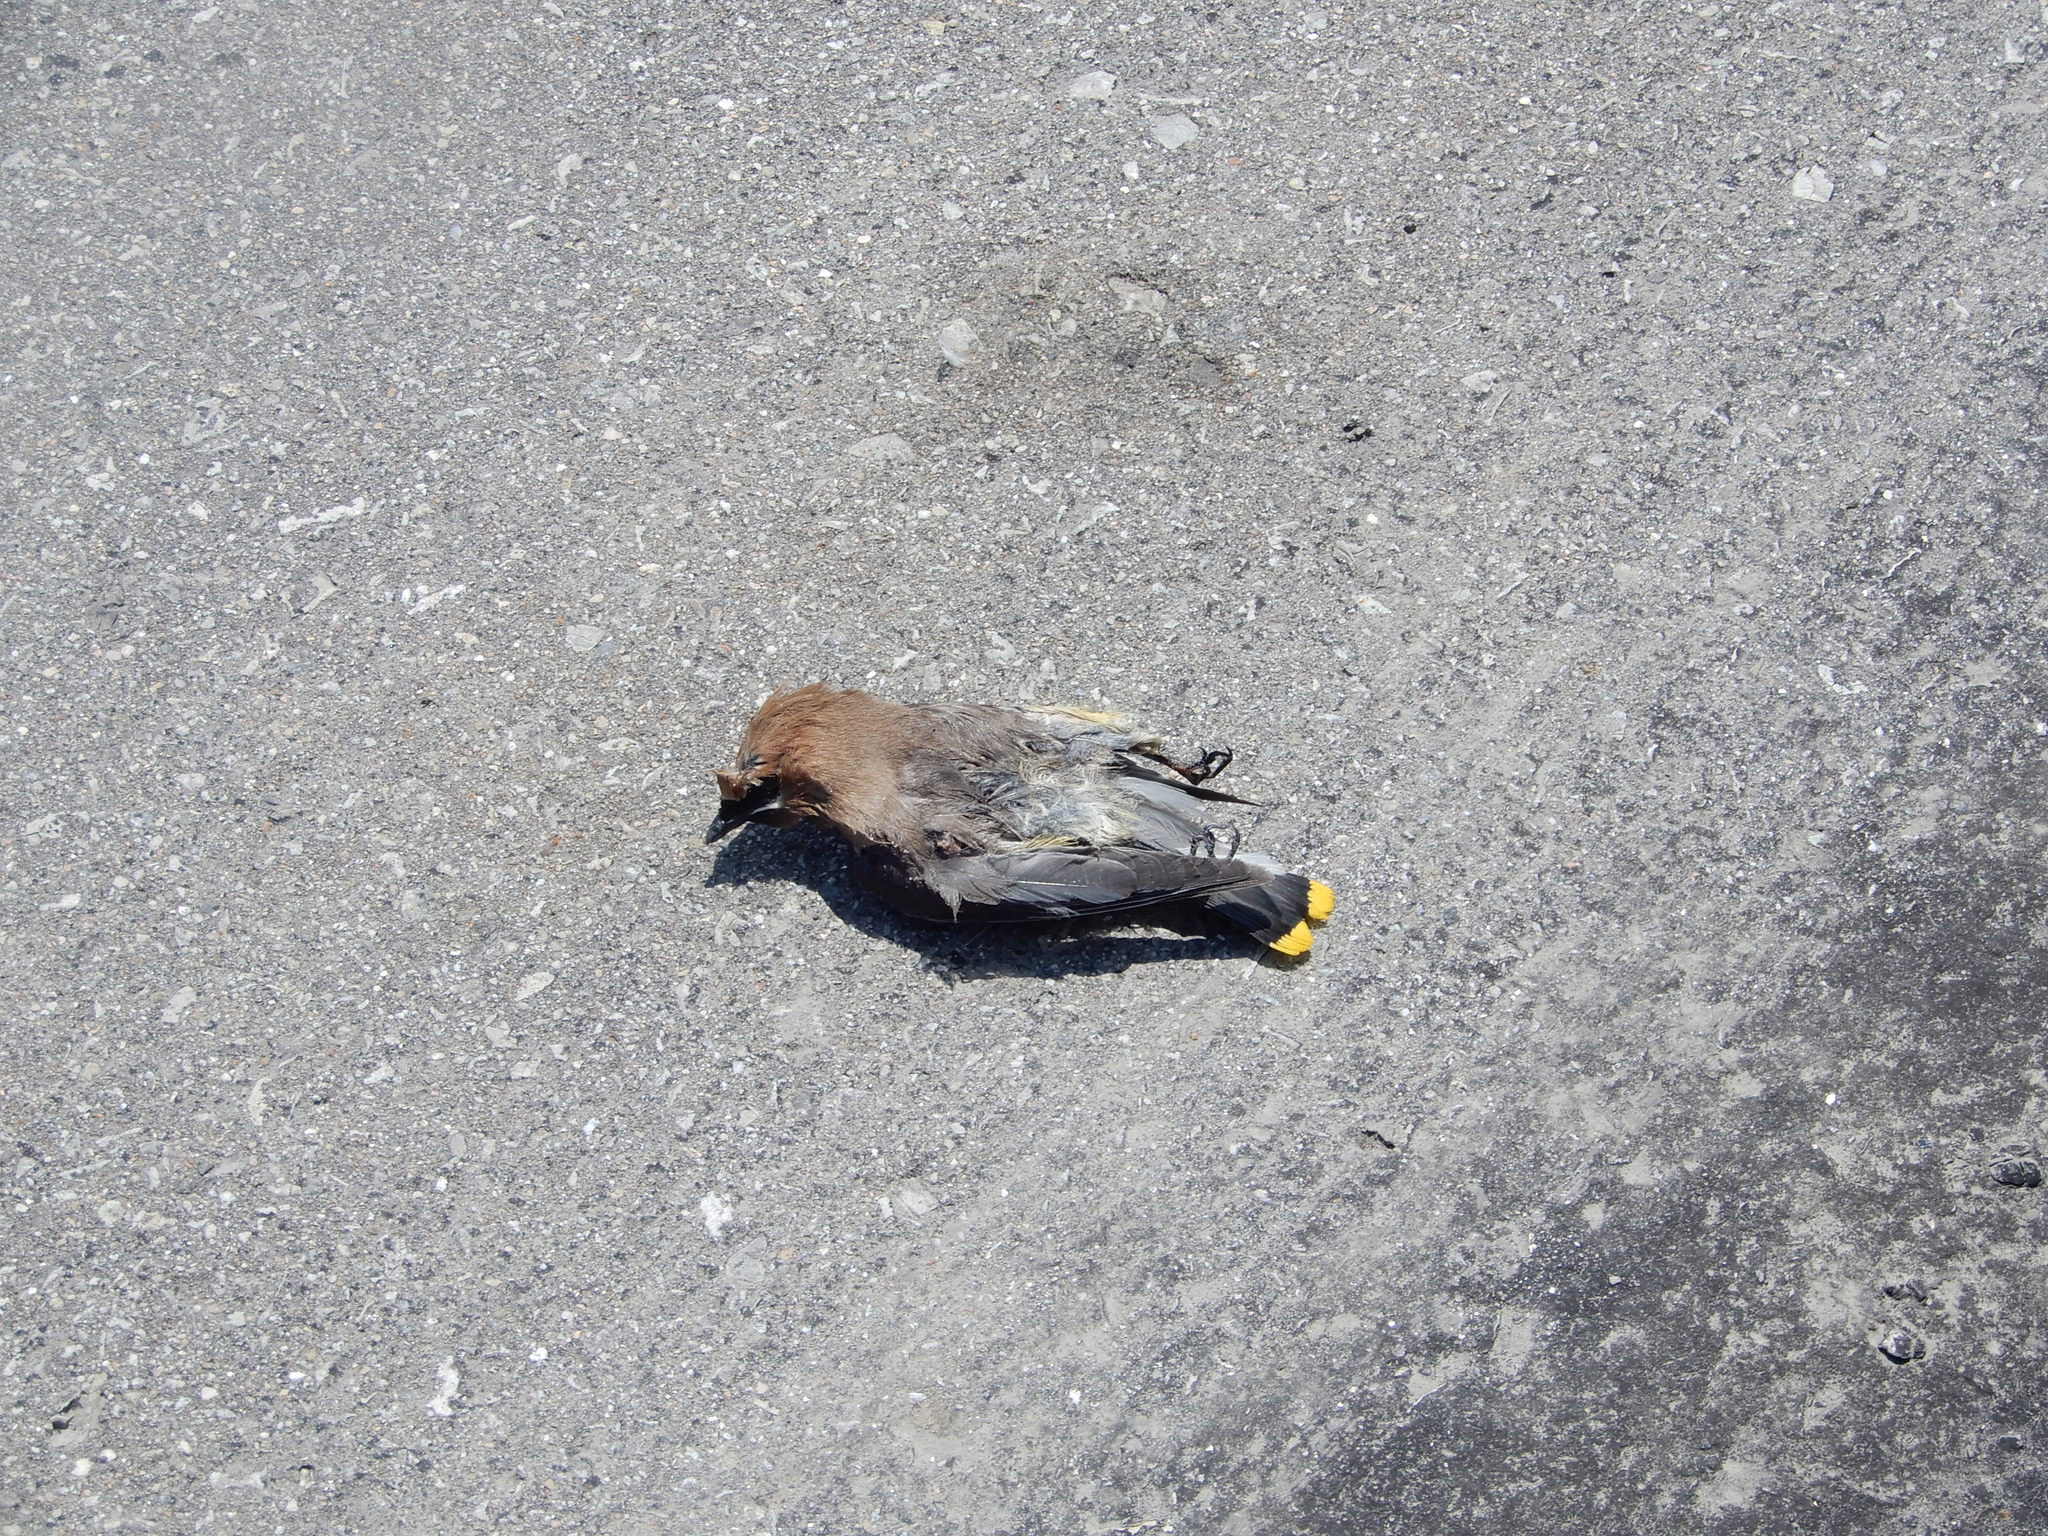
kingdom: Animalia
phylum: Chordata
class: Aves
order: Passeriformes
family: Bombycillidae
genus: Bombycilla
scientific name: Bombycilla cedrorum
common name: Cedar waxwing
